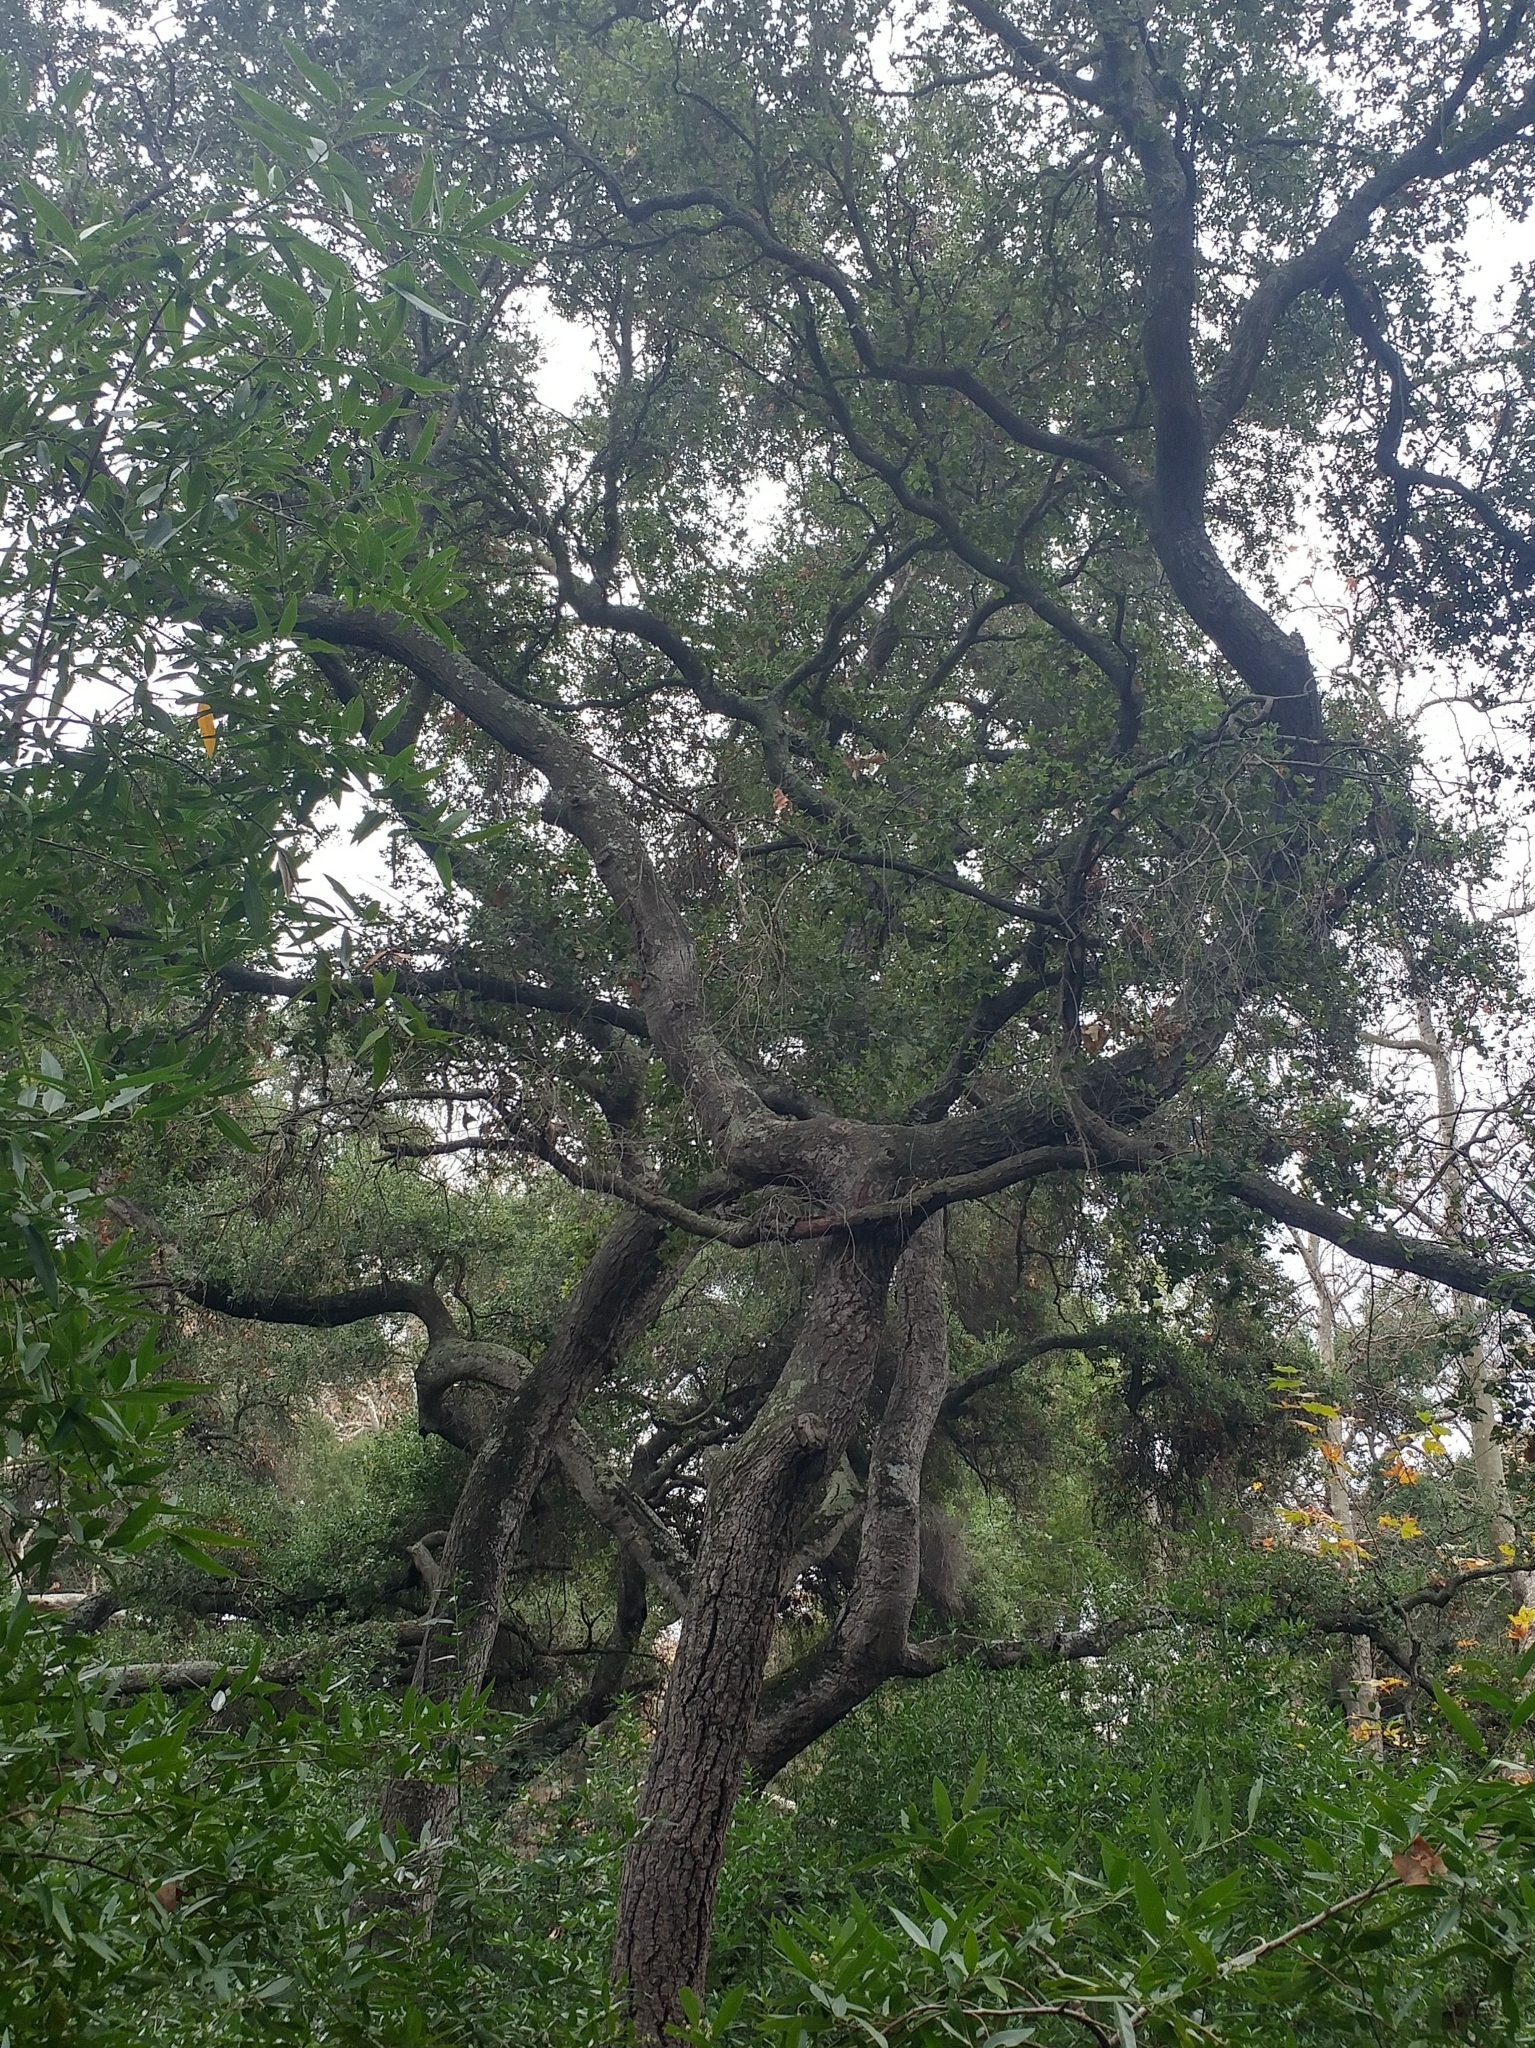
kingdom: Plantae
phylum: Tracheophyta
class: Magnoliopsida
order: Fagales
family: Fagaceae
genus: Quercus
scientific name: Quercus agrifolia
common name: California live oak
